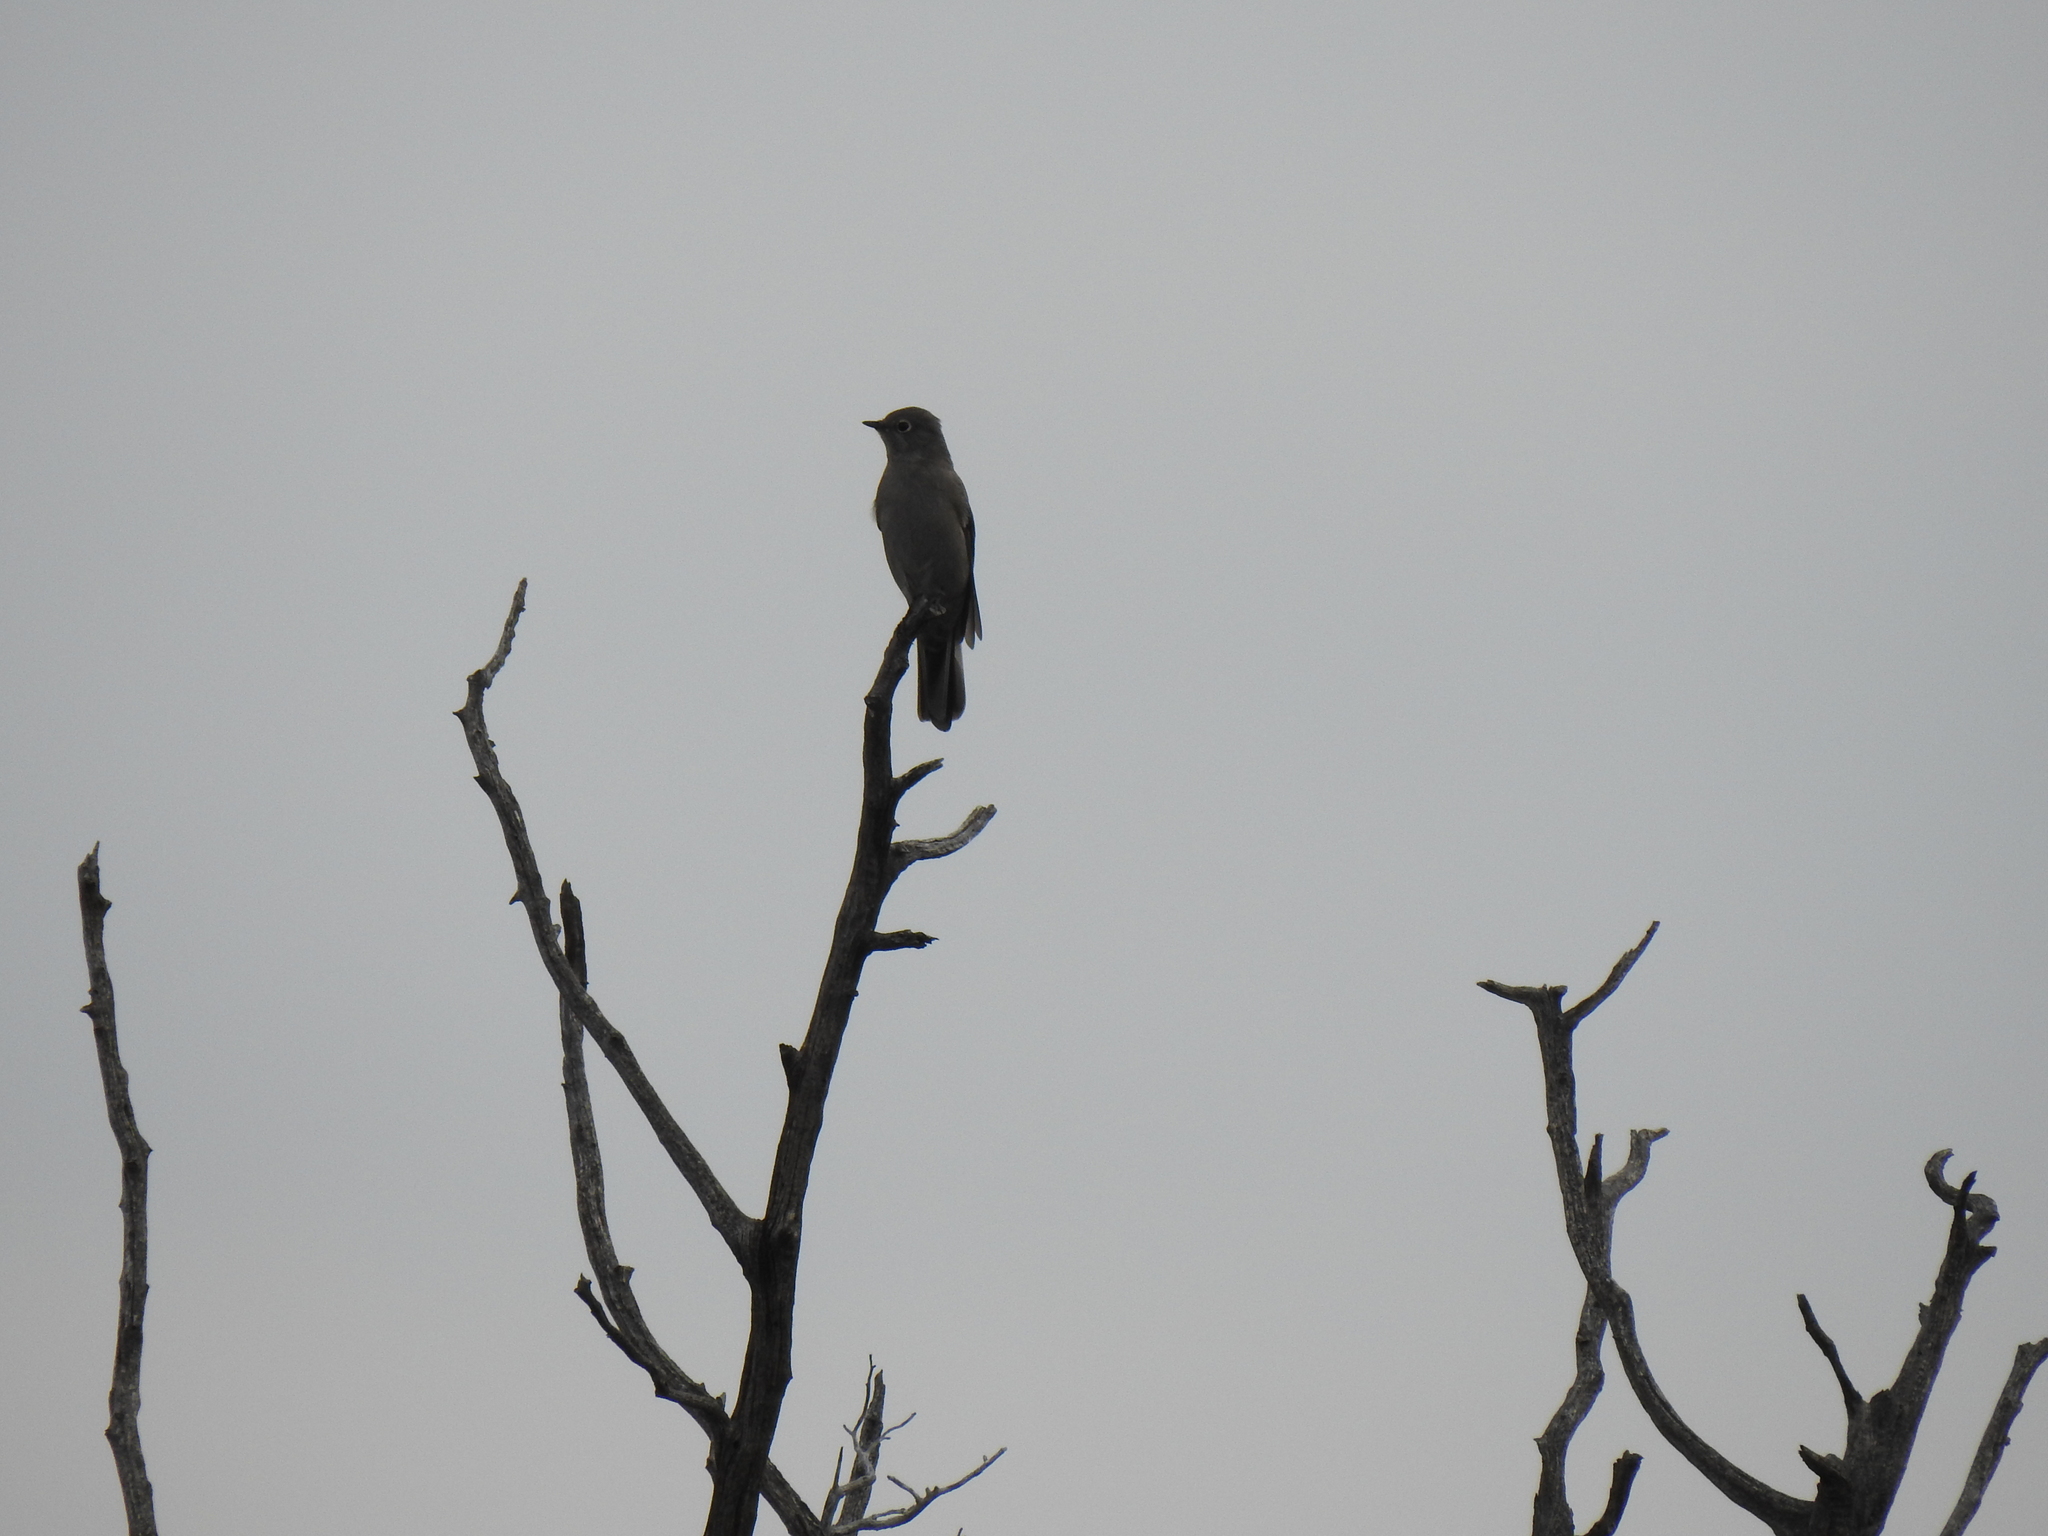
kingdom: Animalia
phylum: Chordata
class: Aves
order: Passeriformes
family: Turdidae
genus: Myadestes
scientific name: Myadestes townsendi
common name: Townsend's solitaire
